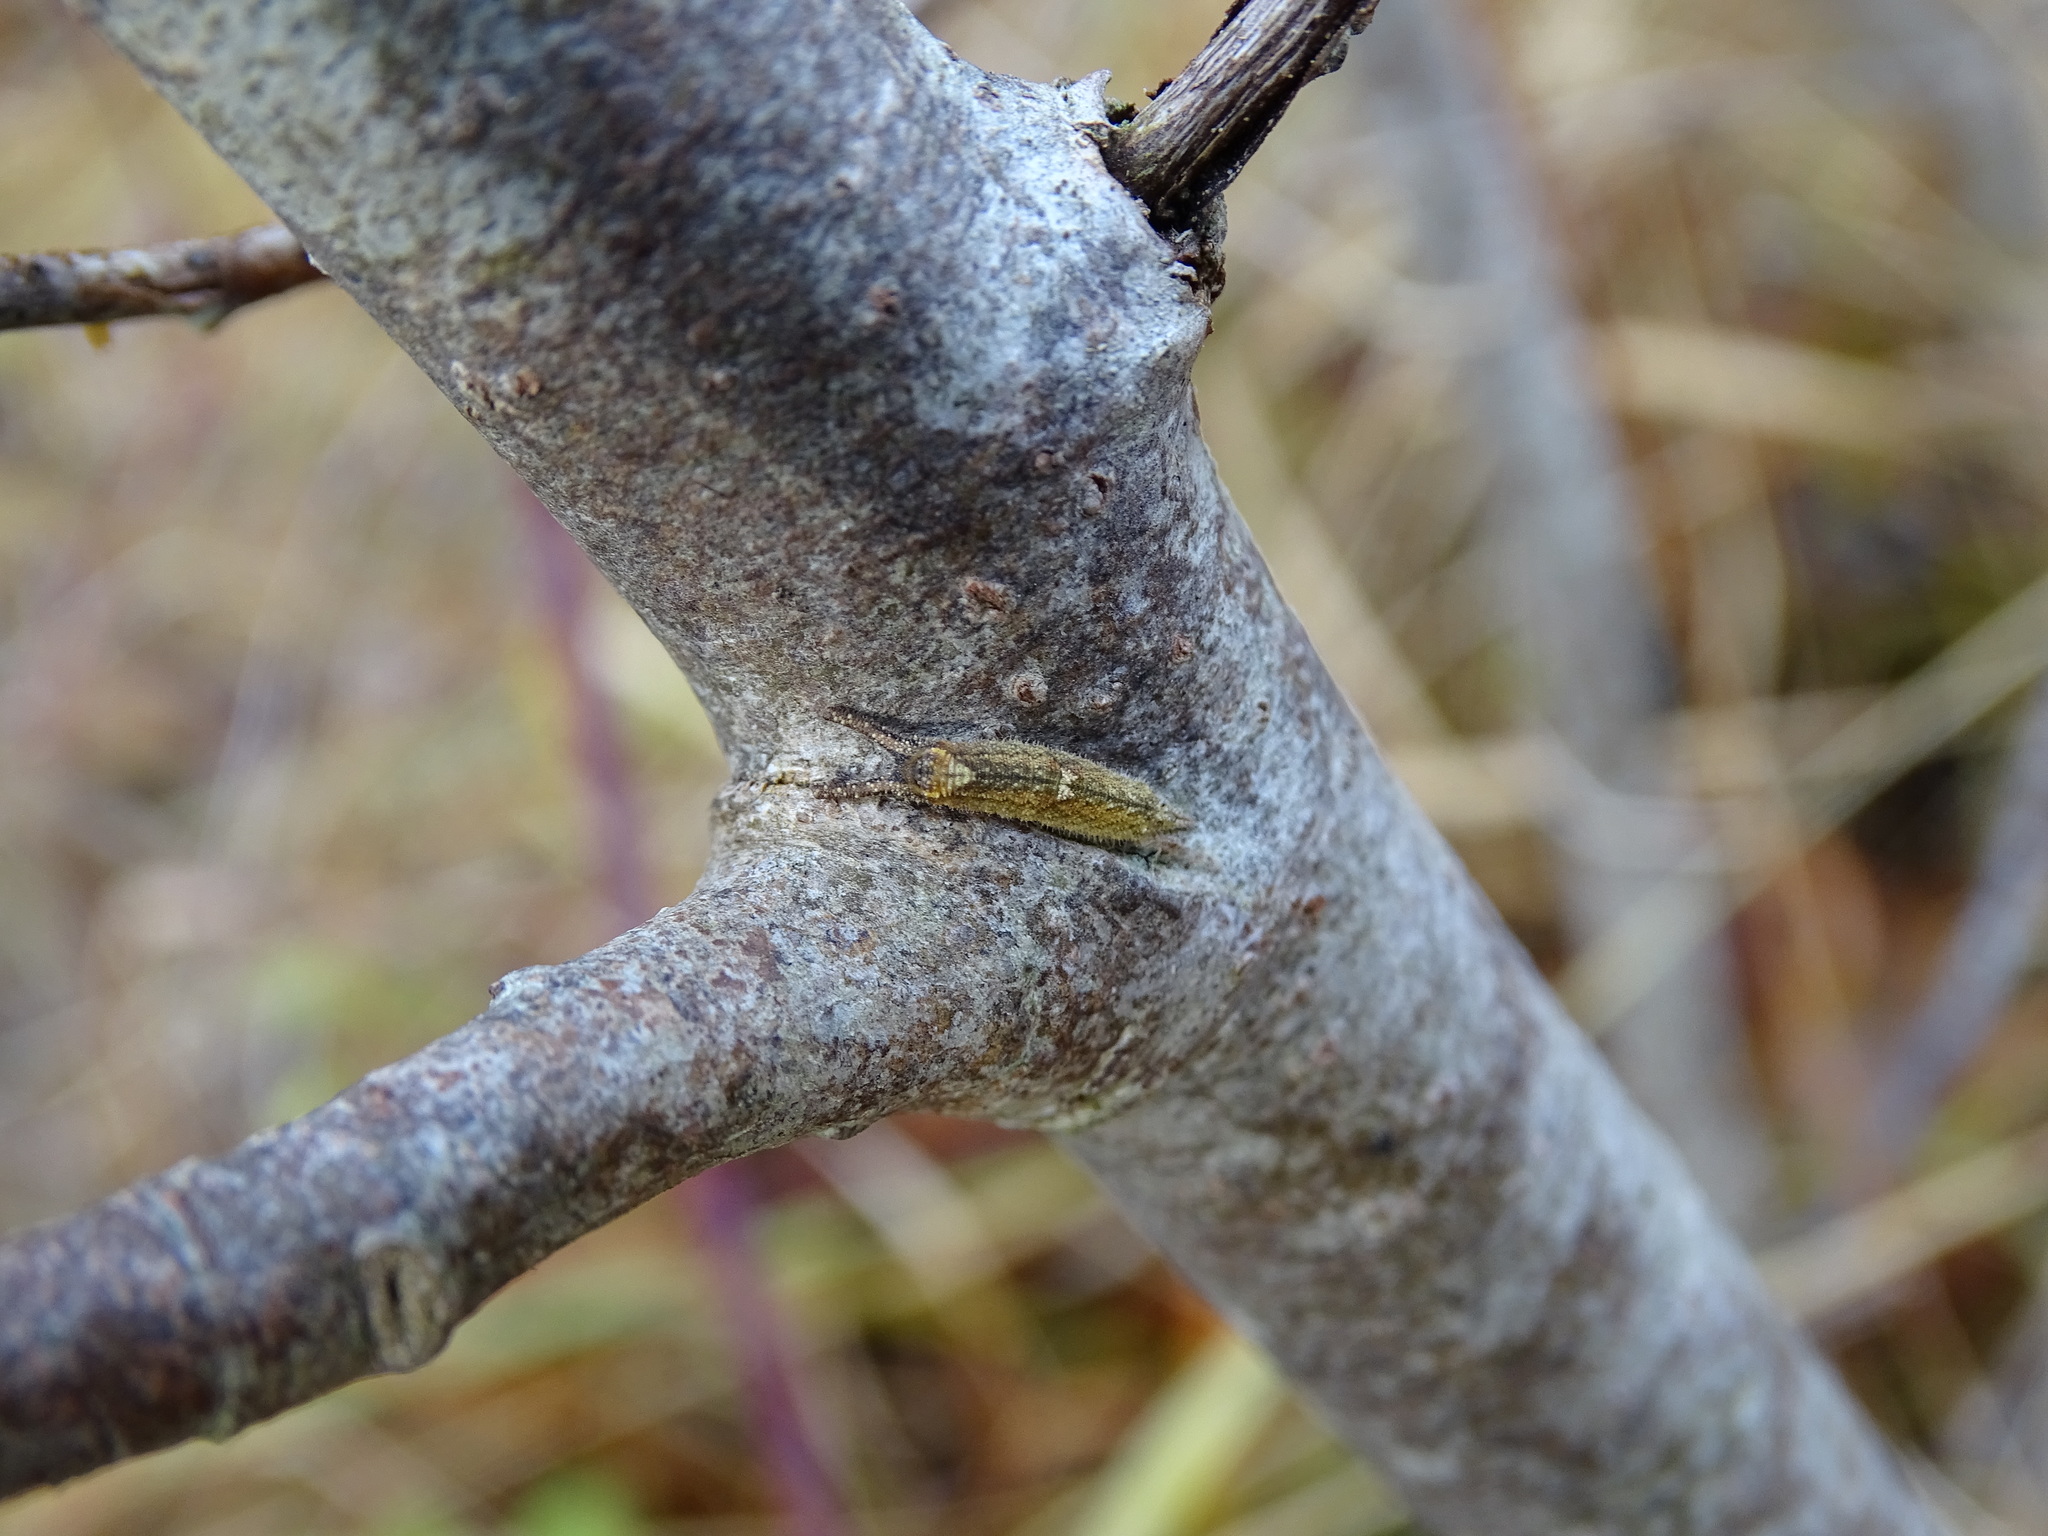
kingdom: Animalia
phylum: Arthropoda
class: Insecta
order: Lepidoptera
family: Nymphalidae
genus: Apatura
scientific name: Apatura ilia
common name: Lesser purple emperor
